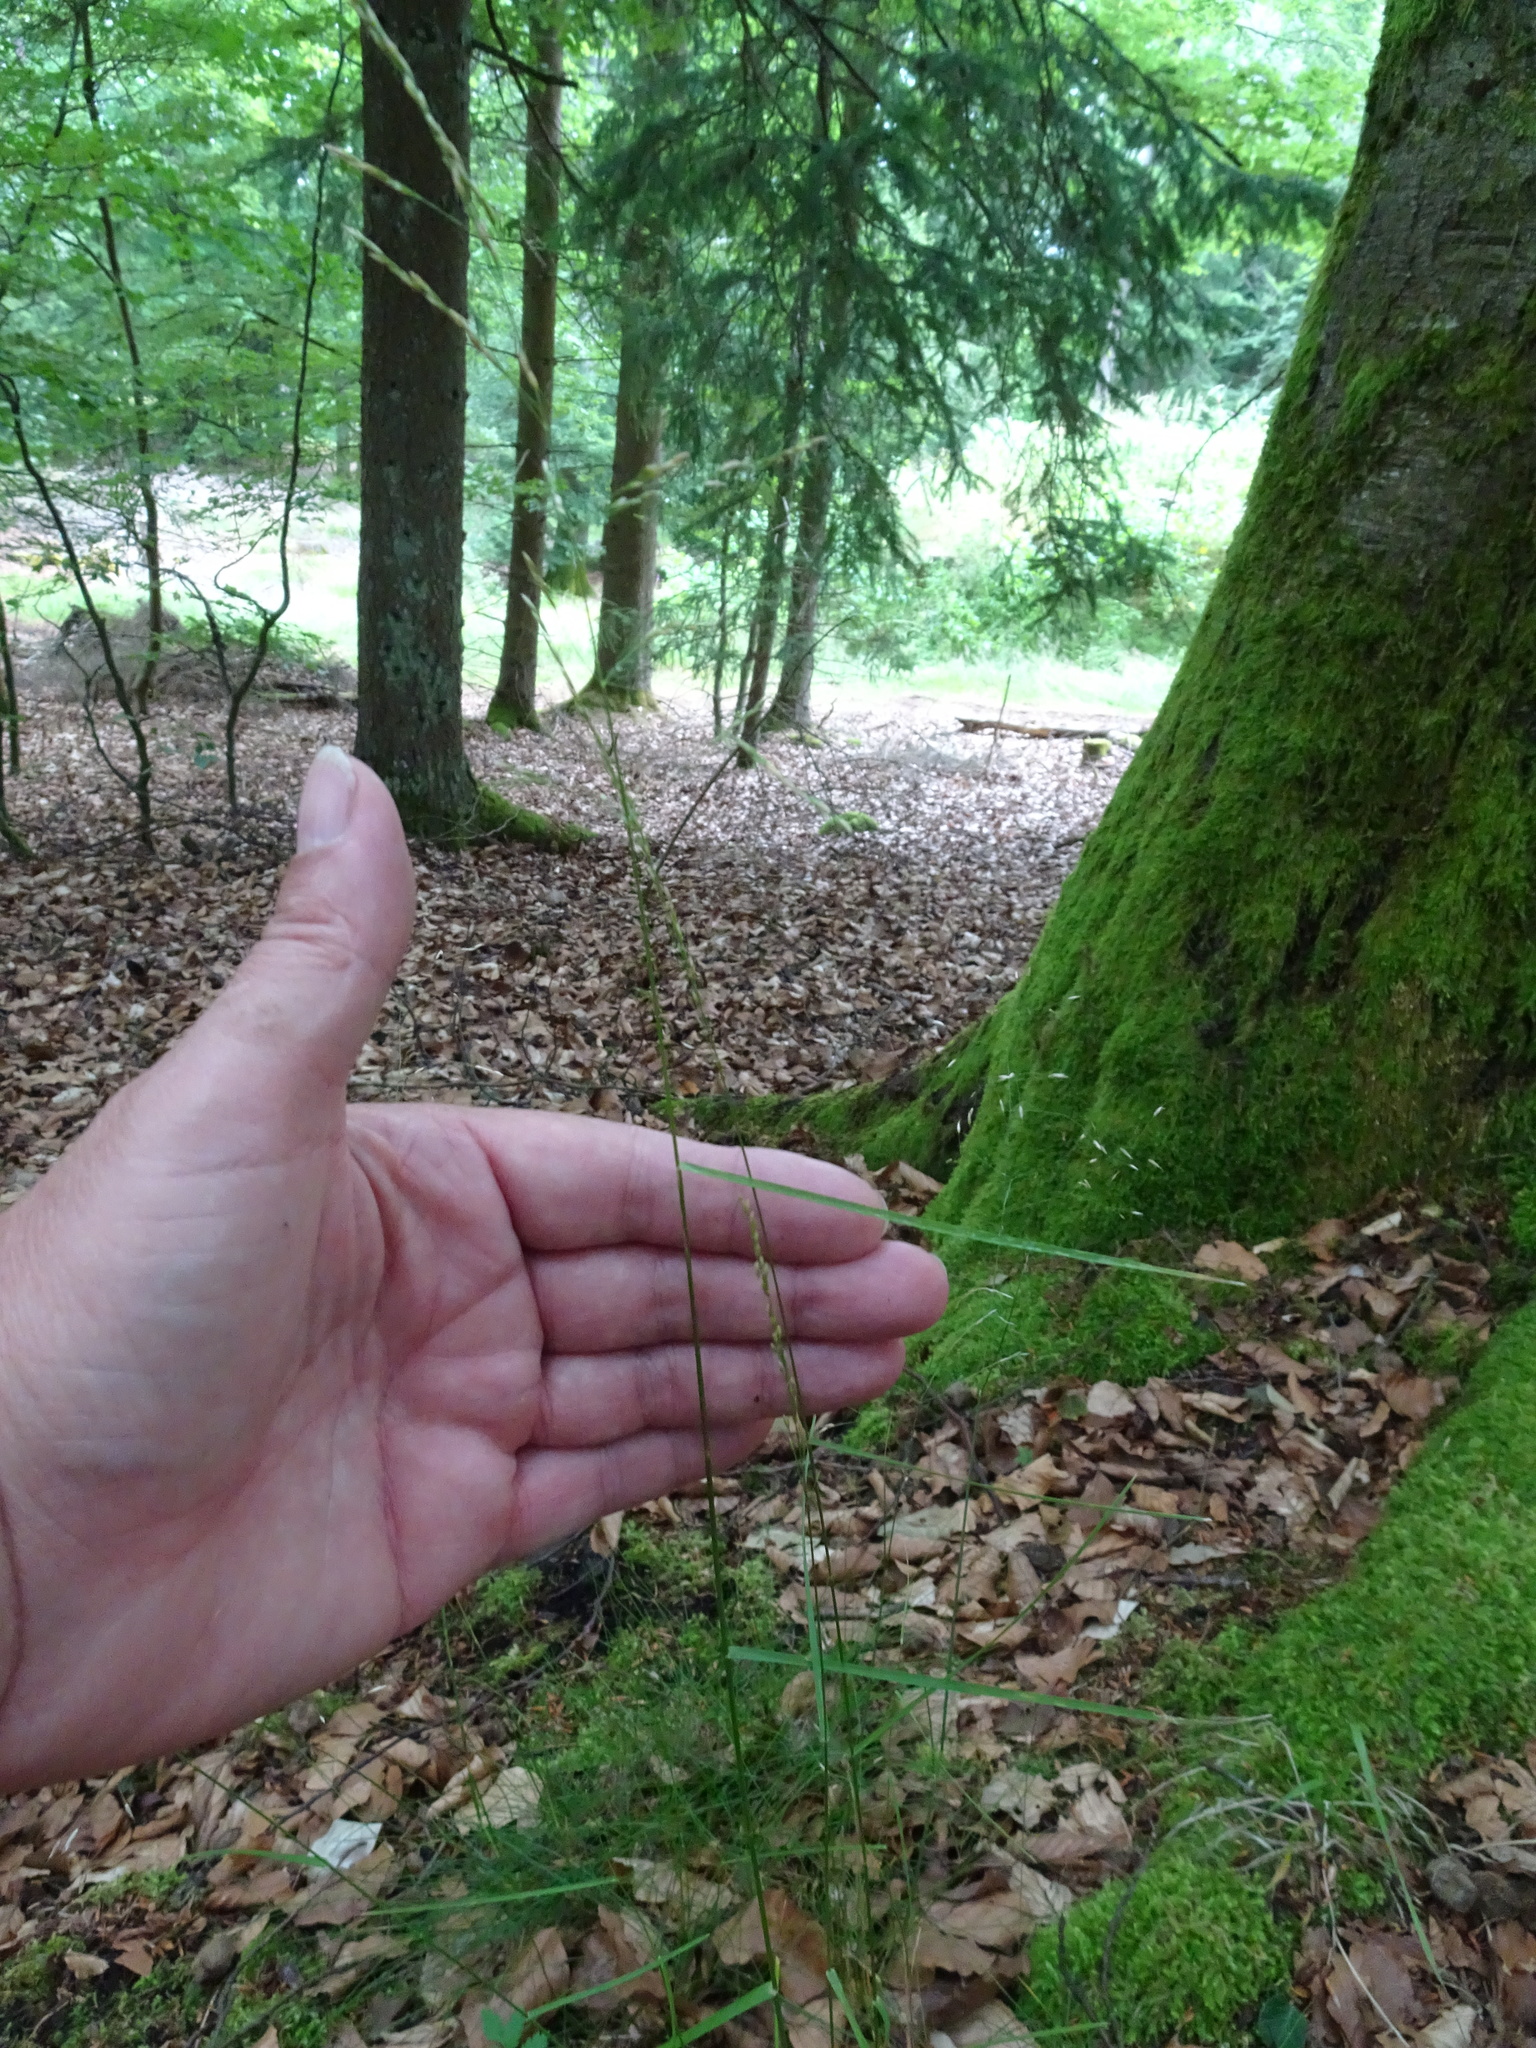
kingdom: Plantae
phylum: Tracheophyta
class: Liliopsida
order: Poales
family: Poaceae
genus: Poa
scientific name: Poa nemoralis
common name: Wood bluegrass
